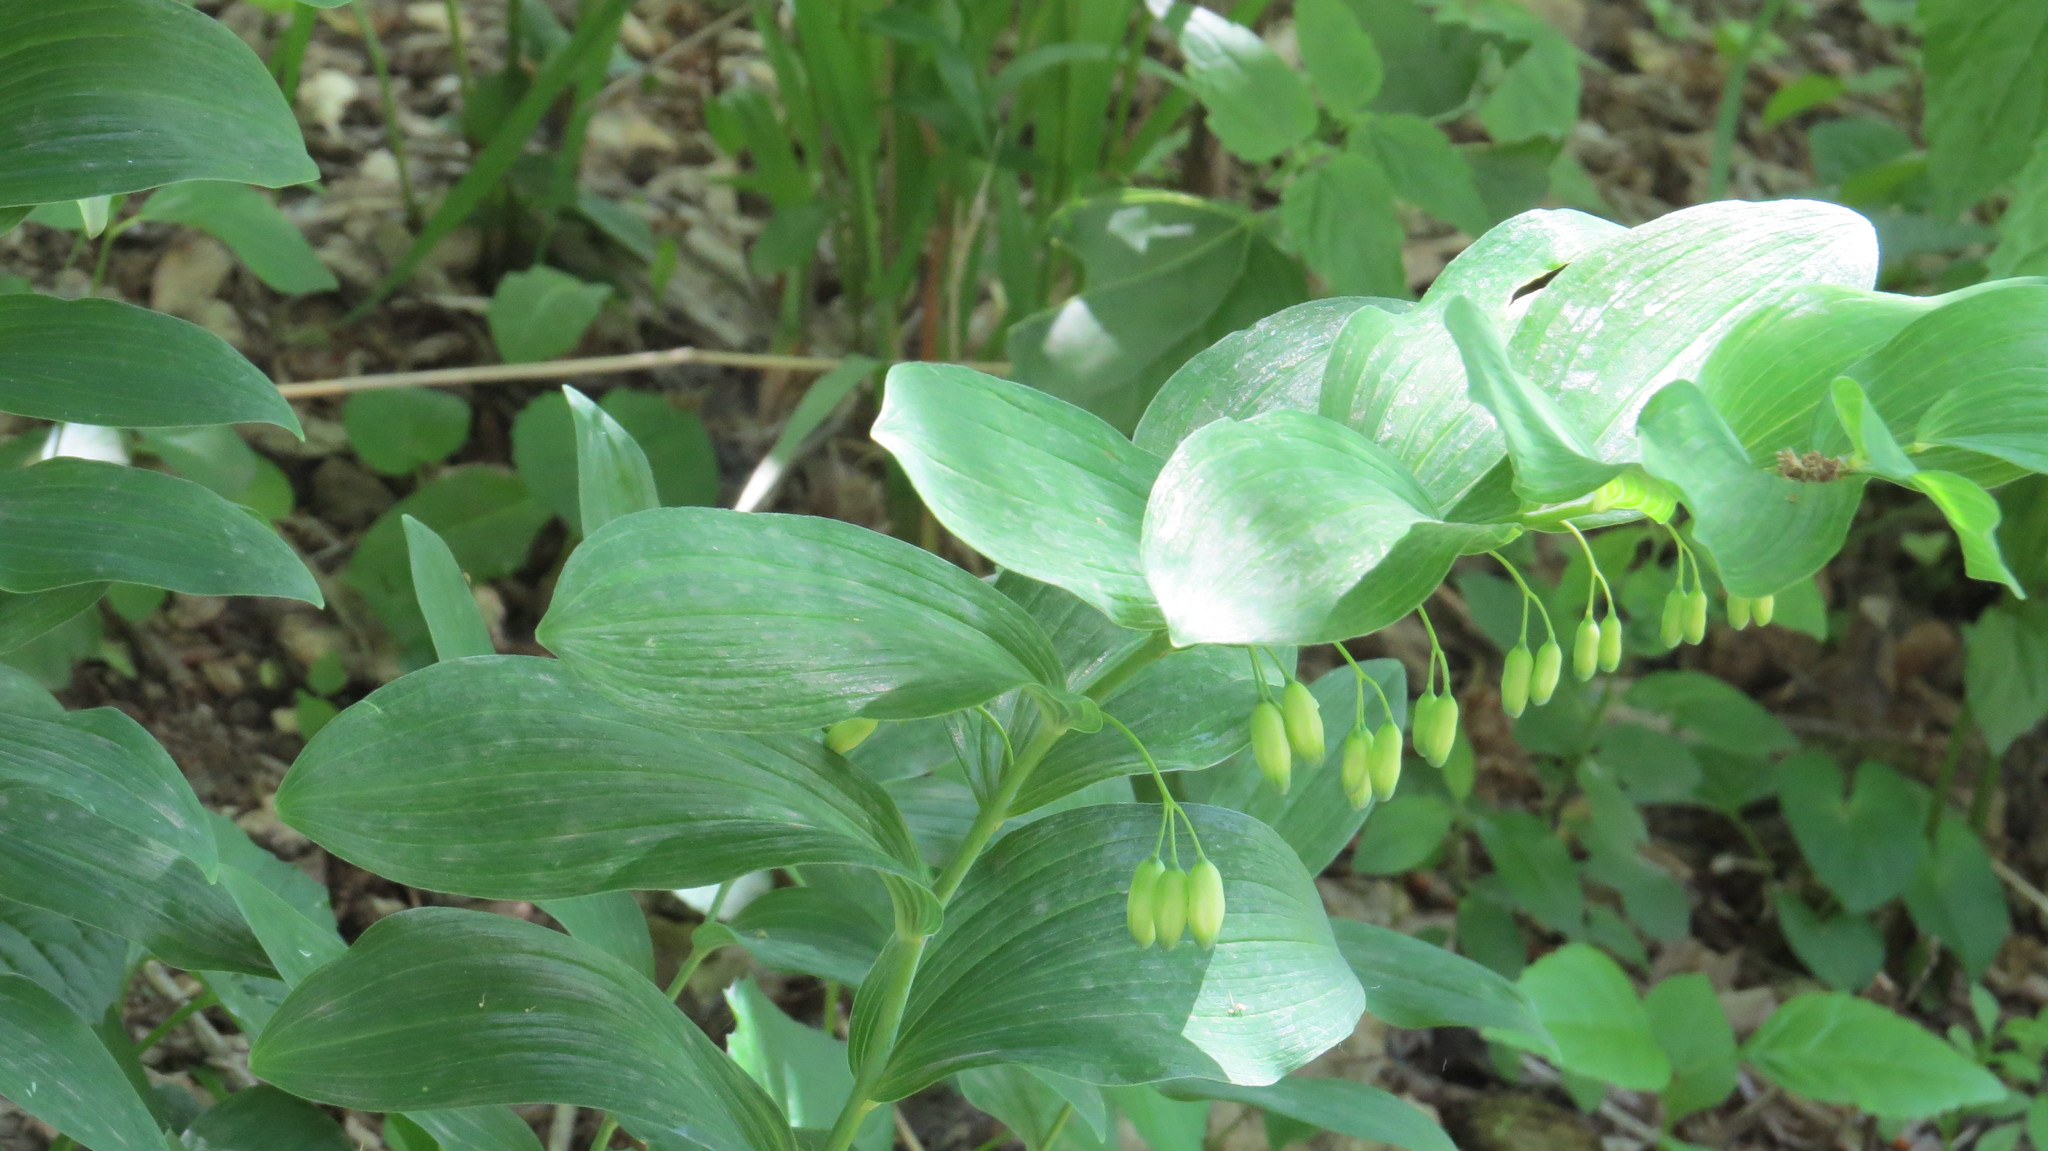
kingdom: Plantae
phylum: Tracheophyta
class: Liliopsida
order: Asparagales
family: Asparagaceae
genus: Polygonatum
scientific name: Polygonatum biflorum
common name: American solomon's-seal
